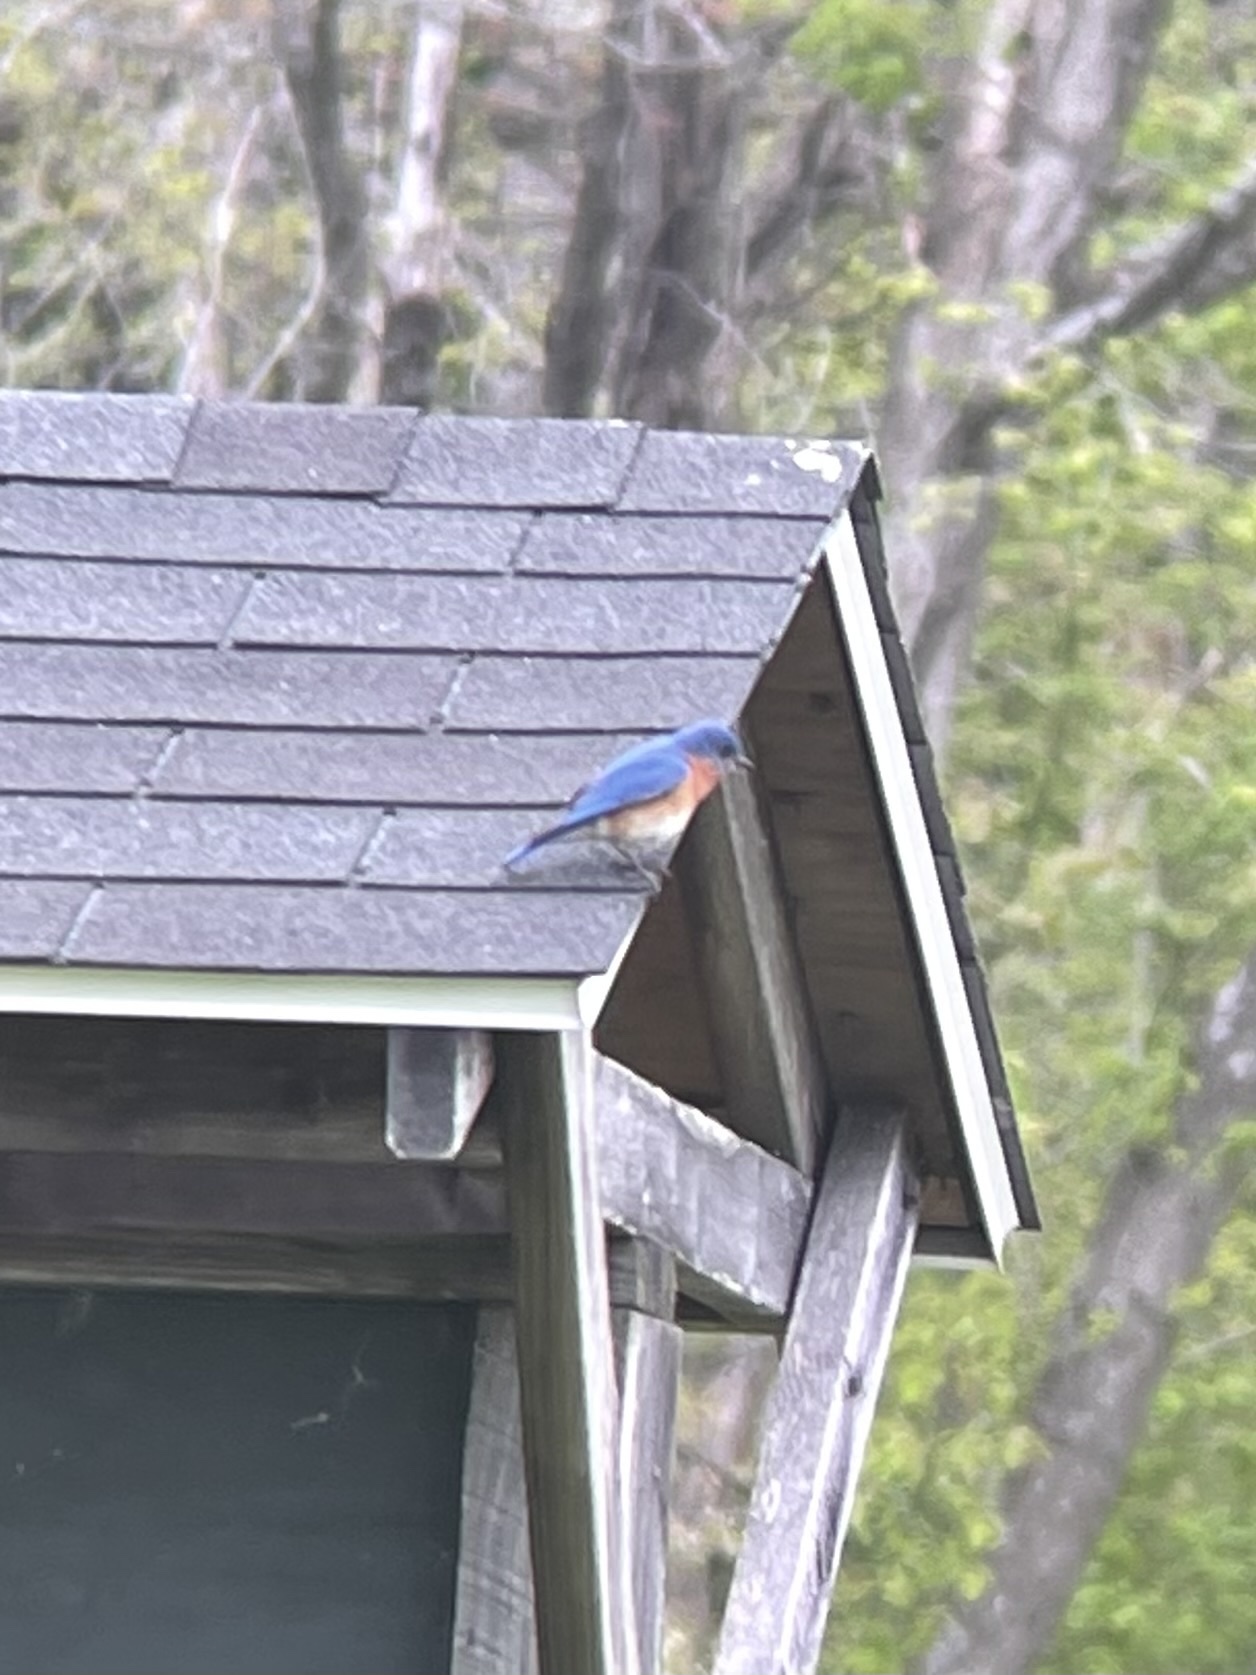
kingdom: Animalia
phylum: Chordata
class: Aves
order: Passeriformes
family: Turdidae
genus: Sialia
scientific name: Sialia sialis
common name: Eastern bluebird
